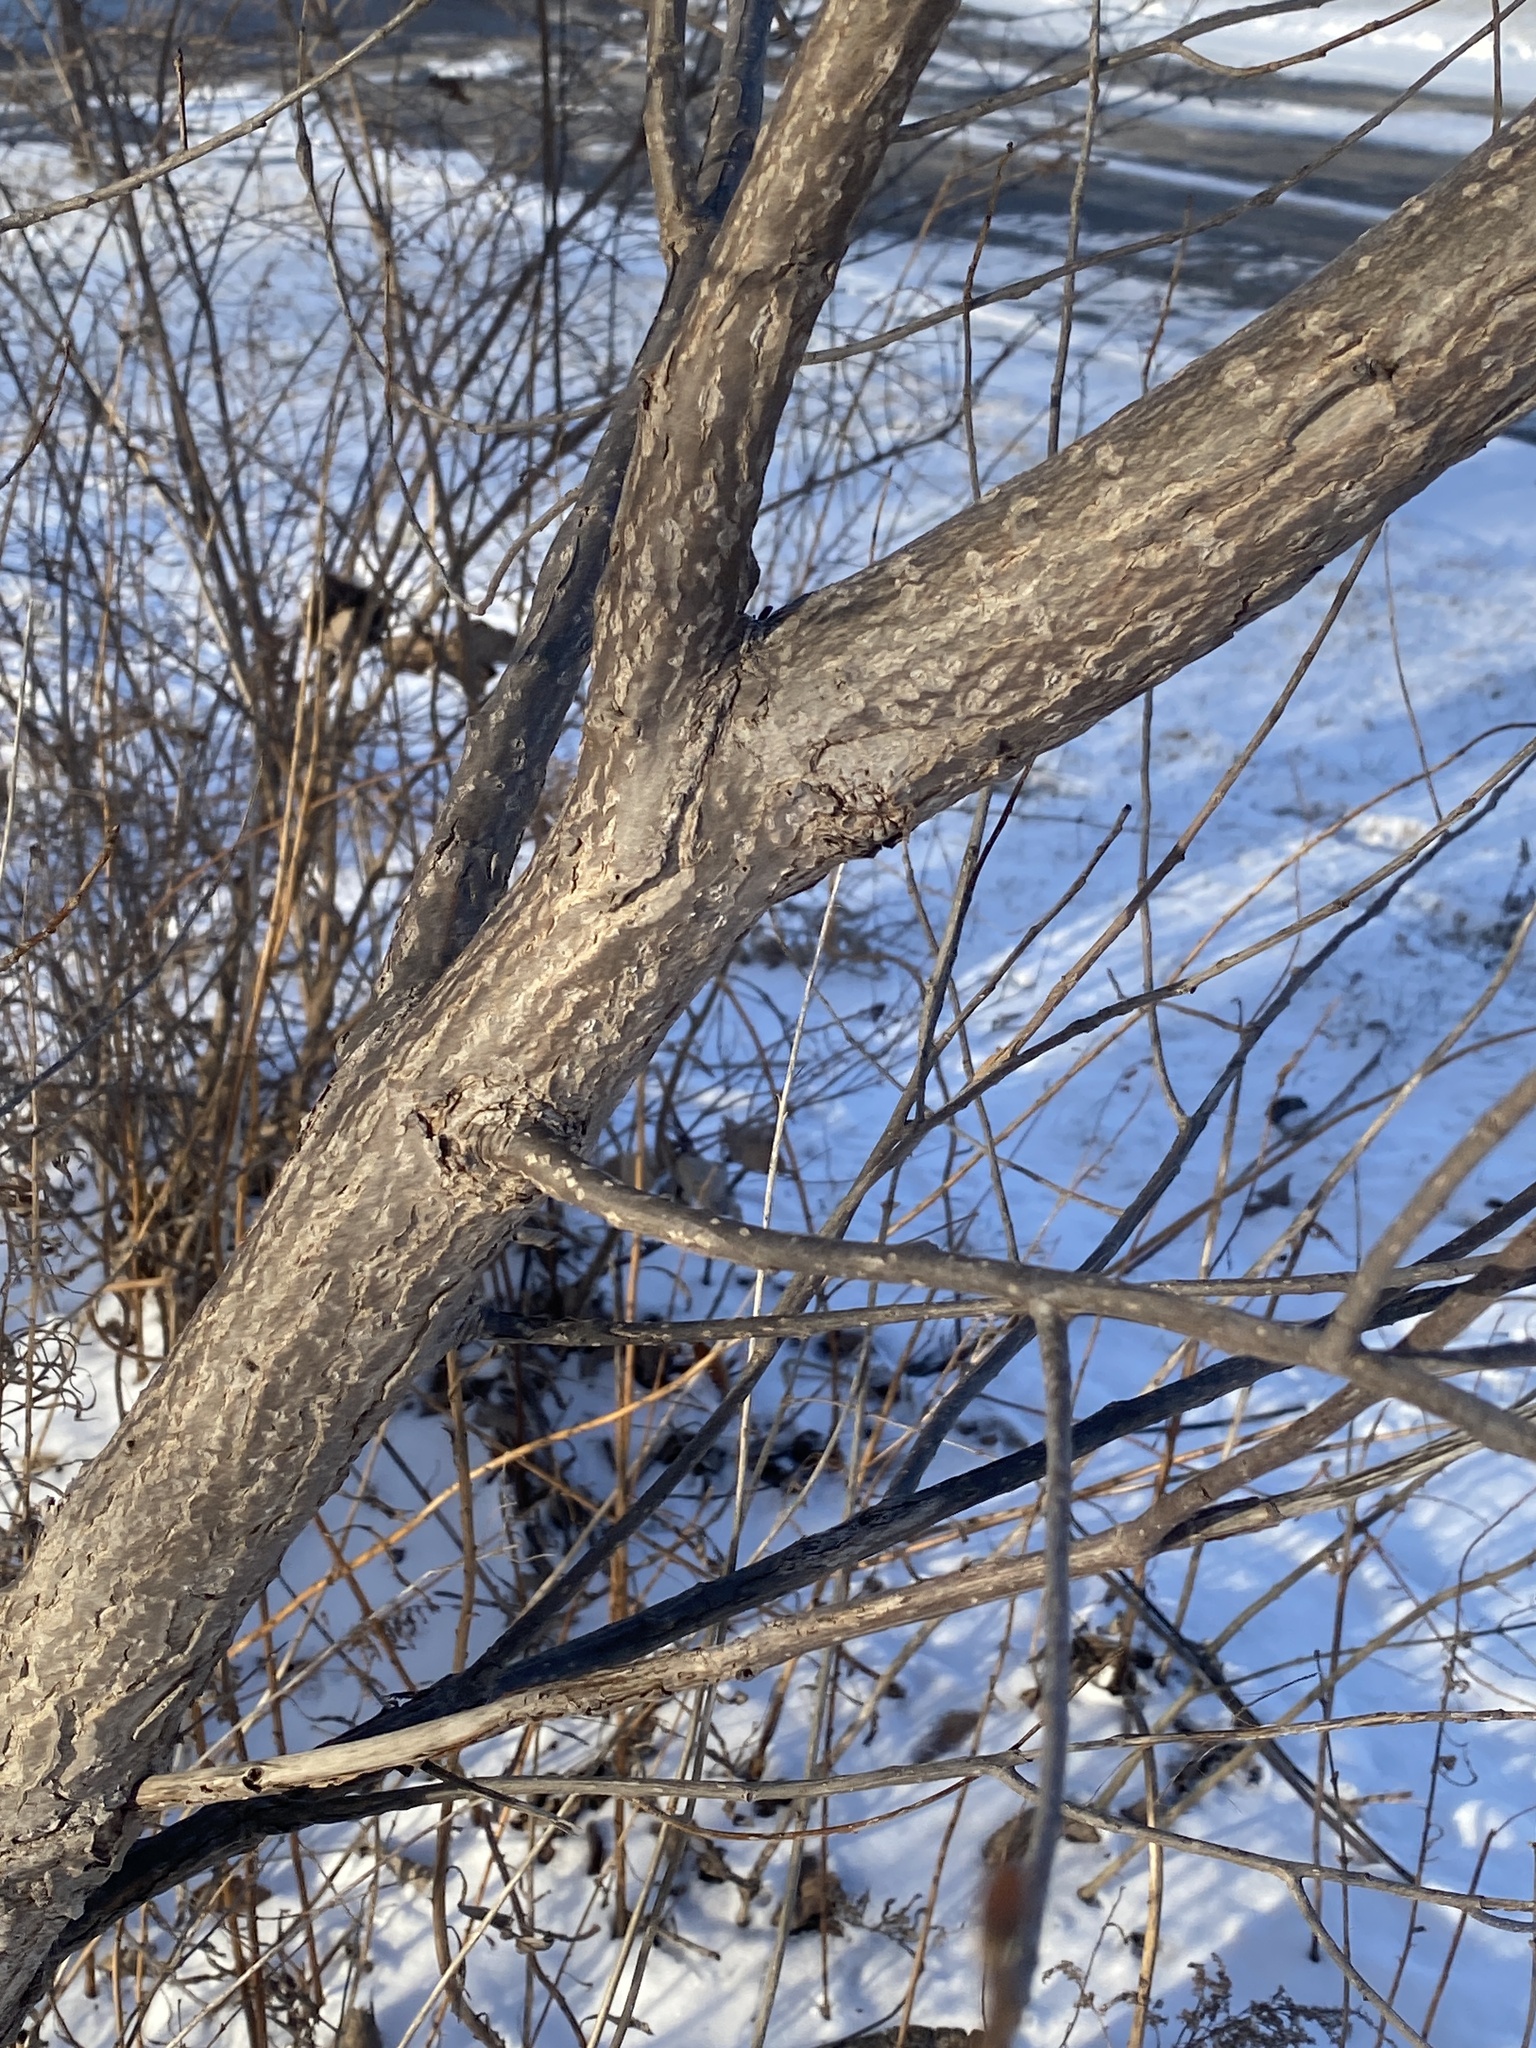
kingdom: Plantae
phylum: Tracheophyta
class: Magnoliopsida
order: Malpighiales
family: Salicaceae
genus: Populus
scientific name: Populus deltoides
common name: Eastern cottonwood
